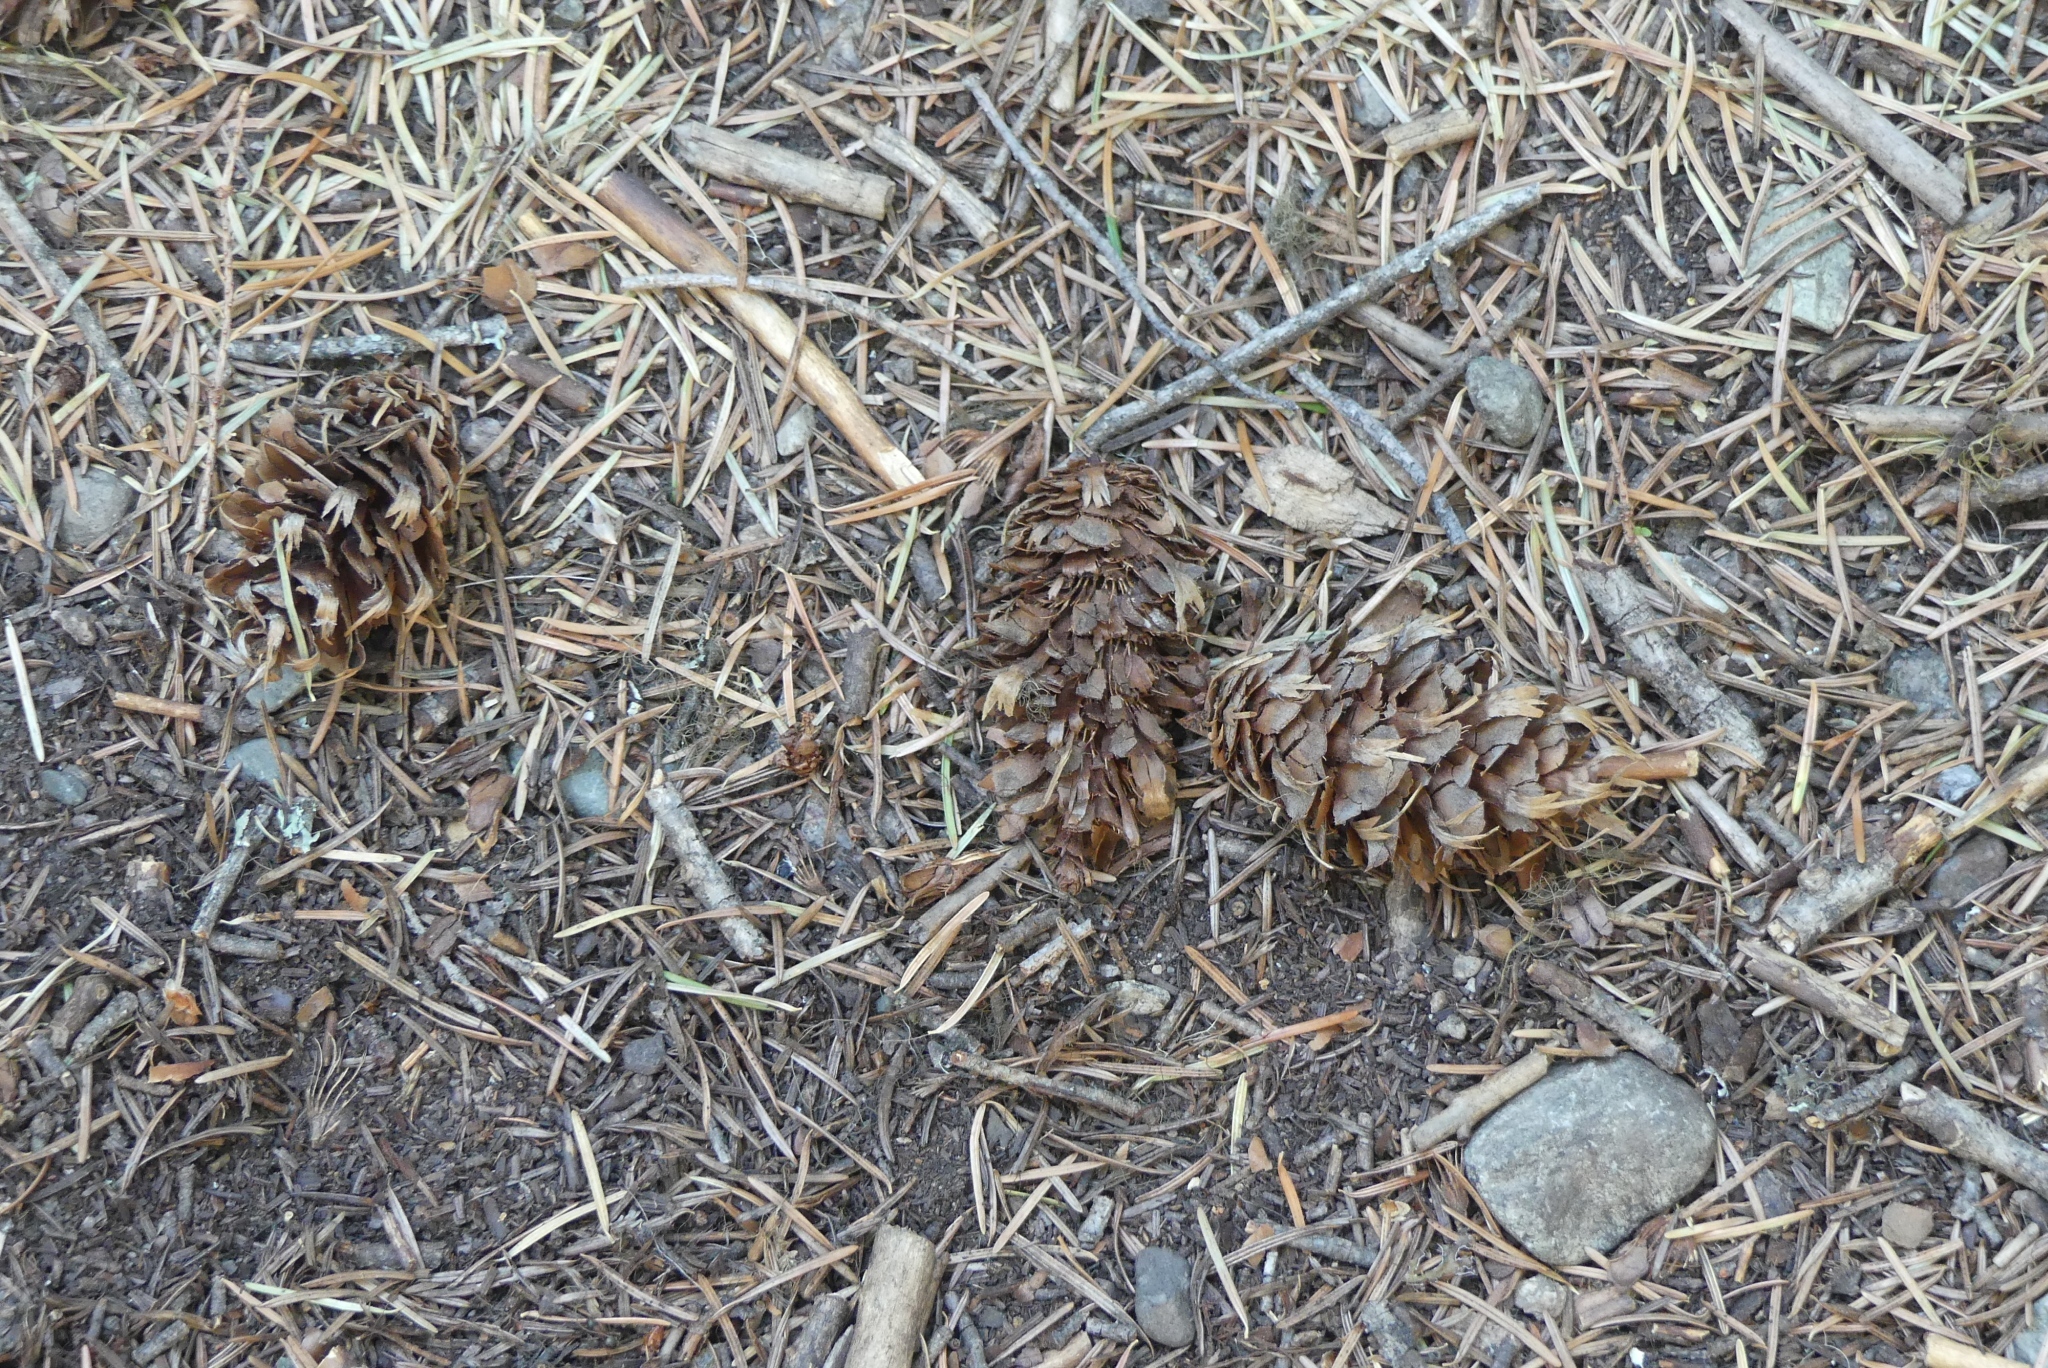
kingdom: Plantae
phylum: Tracheophyta
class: Pinopsida
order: Pinales
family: Pinaceae
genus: Pseudotsuga
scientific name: Pseudotsuga menziesii
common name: Douglas fir
